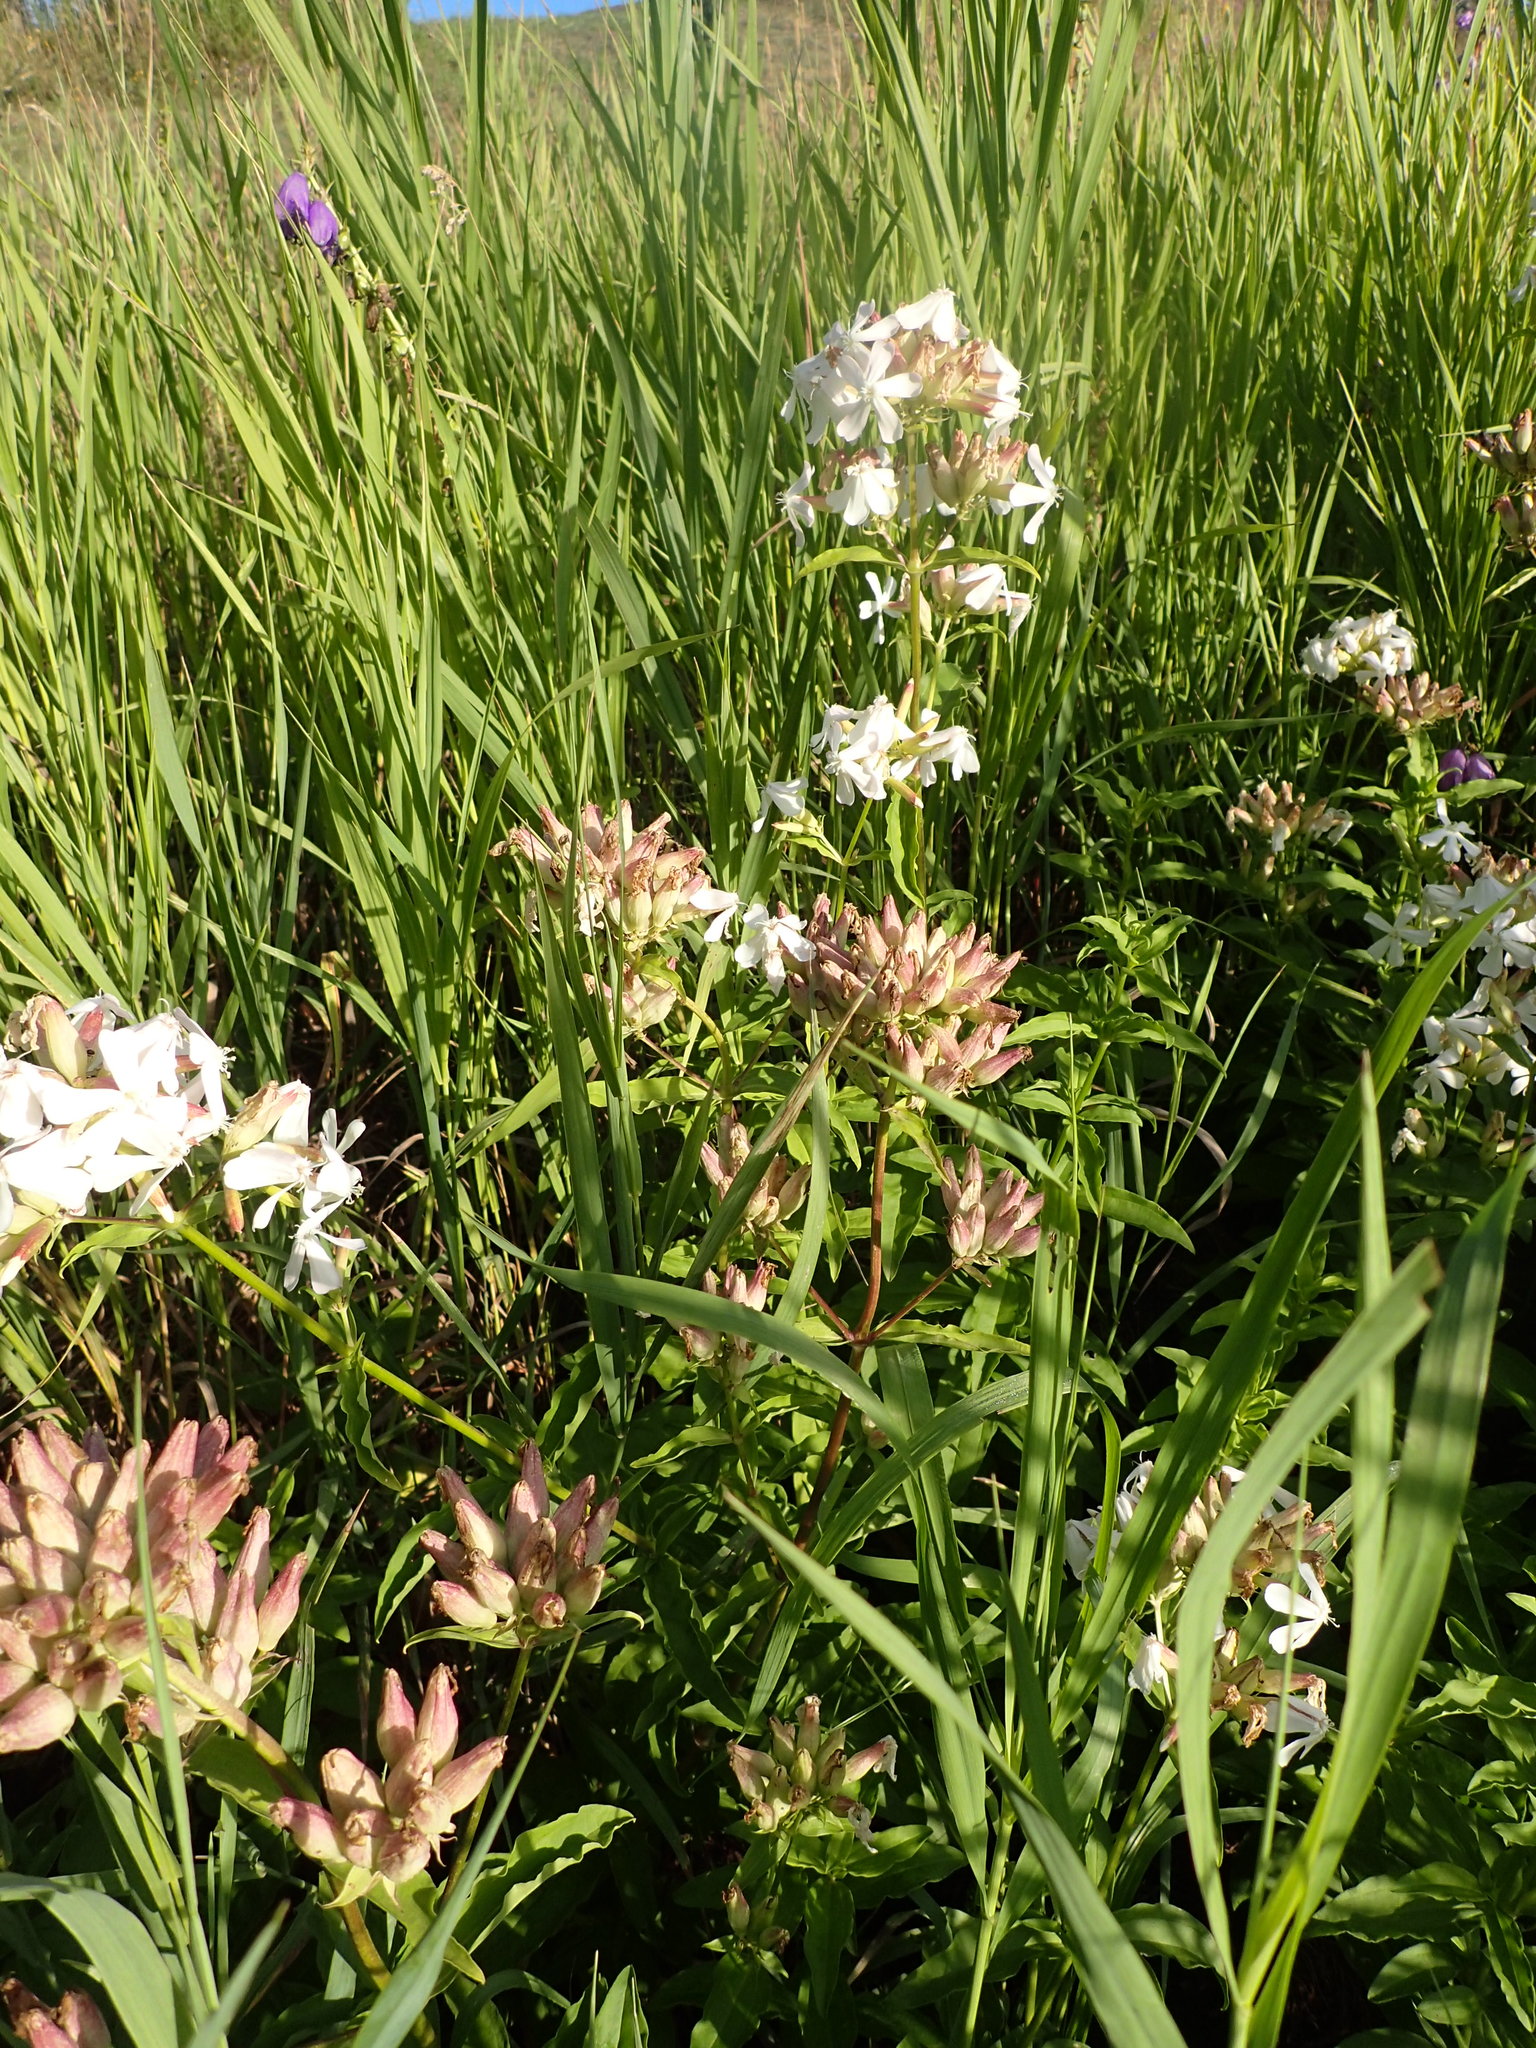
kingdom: Plantae
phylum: Tracheophyta
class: Magnoliopsida
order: Caryophyllales
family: Caryophyllaceae
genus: Saponaria
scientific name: Saponaria officinalis
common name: Soapwort
